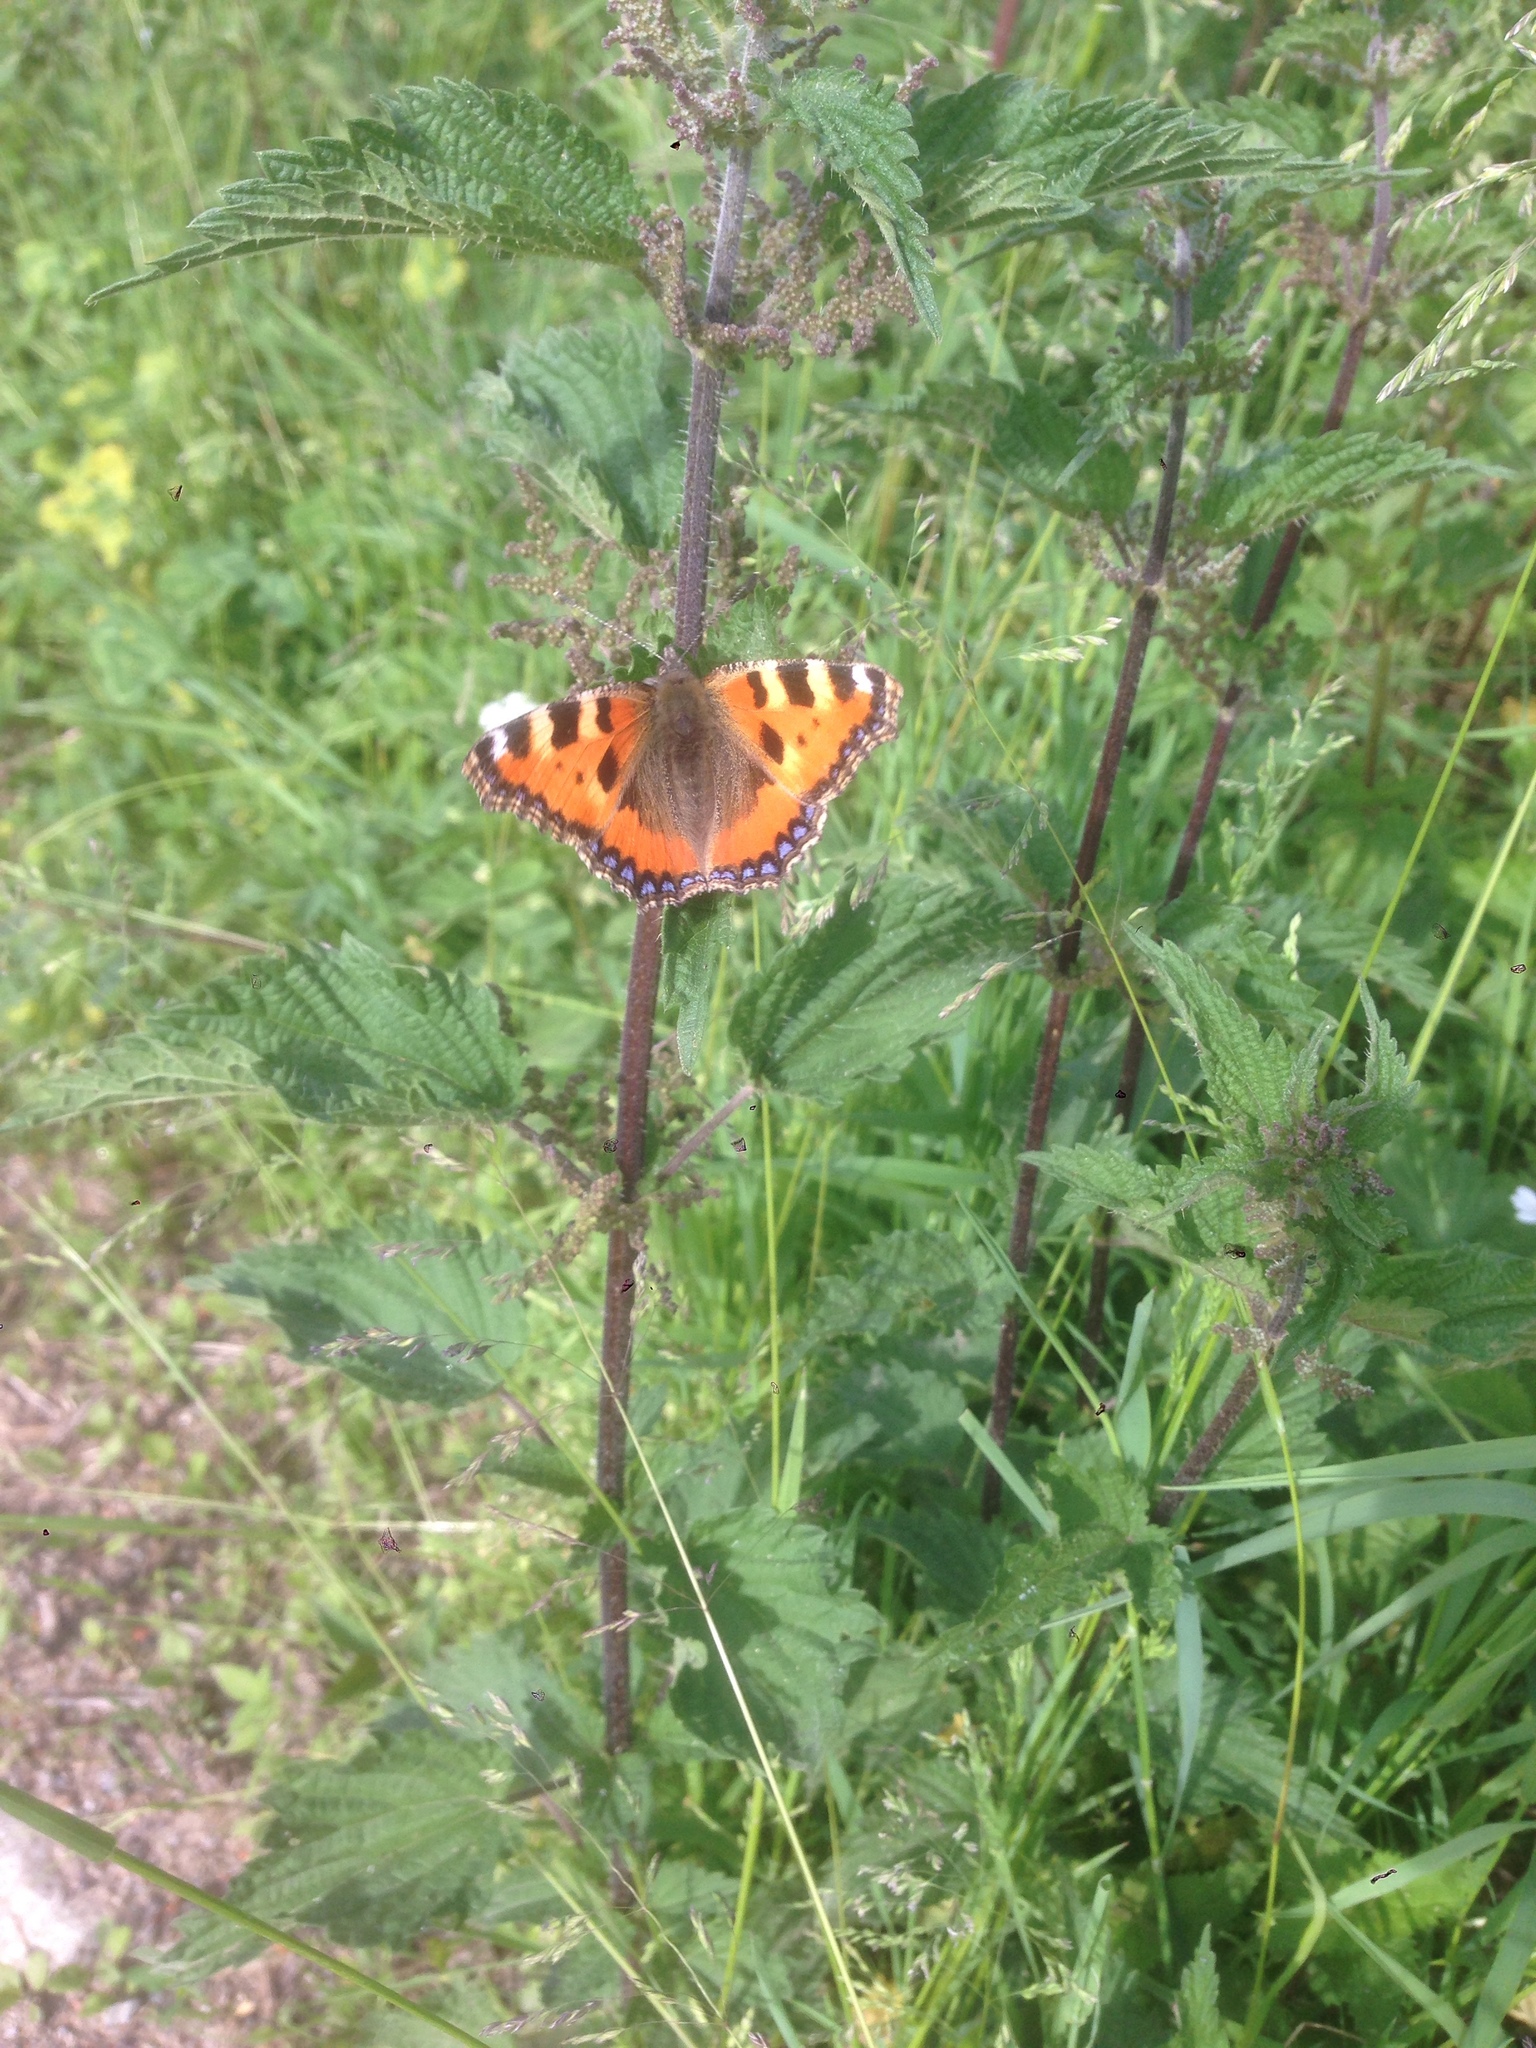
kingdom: Animalia
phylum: Arthropoda
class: Insecta
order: Lepidoptera
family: Nymphalidae
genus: Aglais
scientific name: Aglais urticae
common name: Small tortoiseshell
